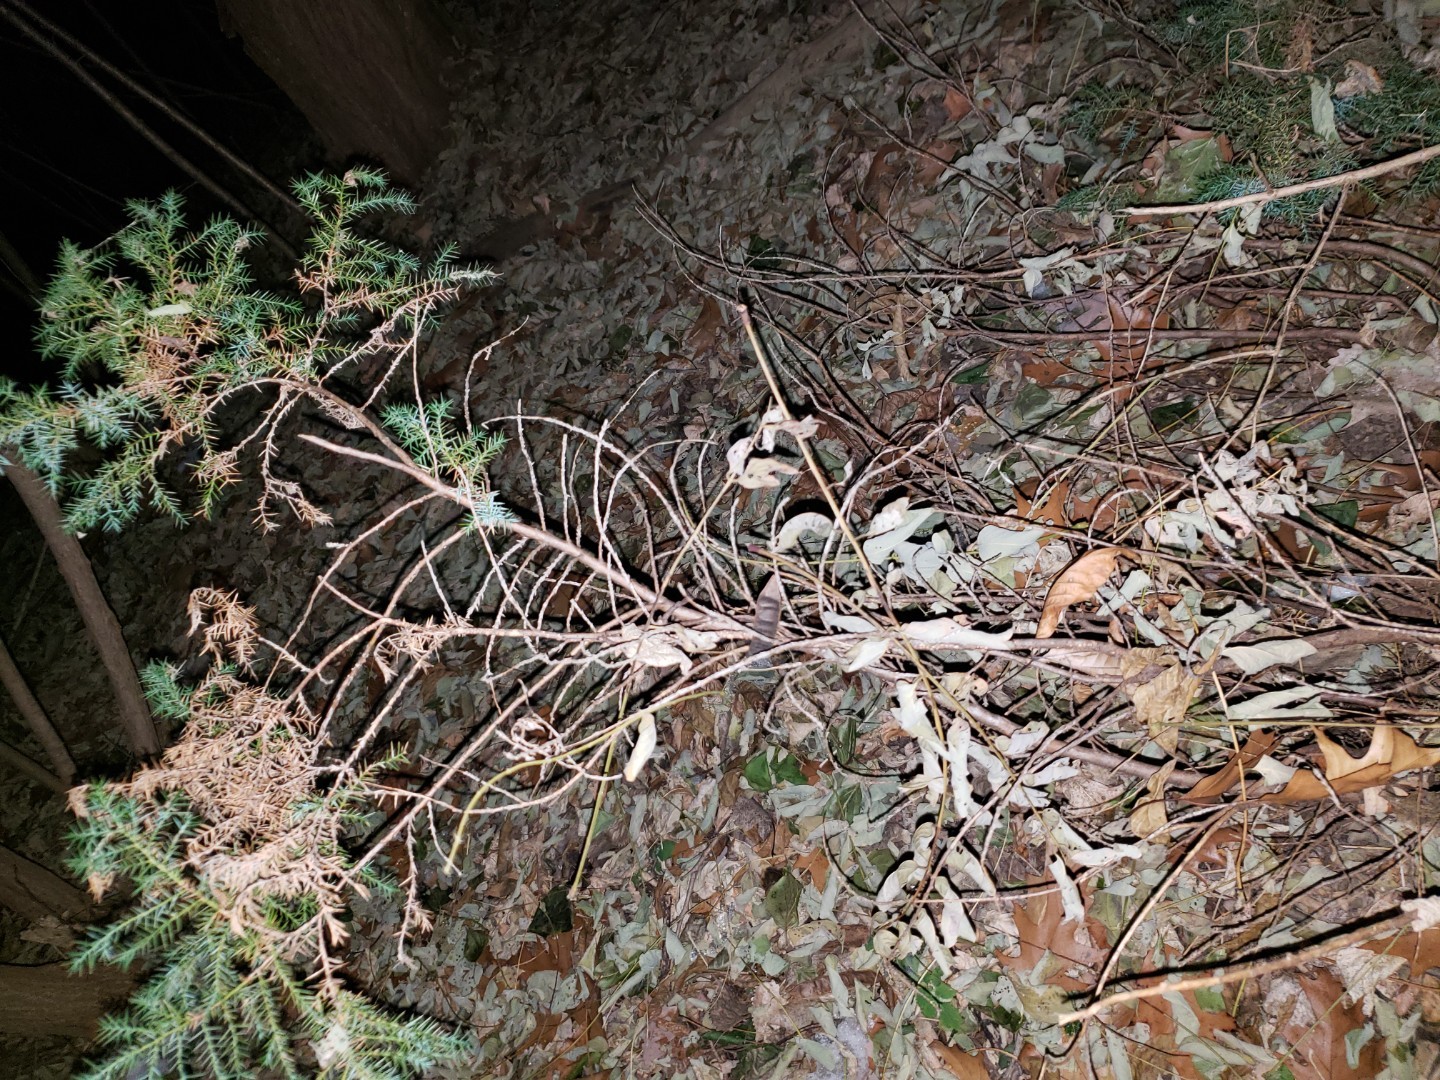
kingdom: Plantae
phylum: Tracheophyta
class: Pinopsida
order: Pinales
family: Cupressaceae
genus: Juniperus
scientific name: Juniperus virginiana
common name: Red juniper
